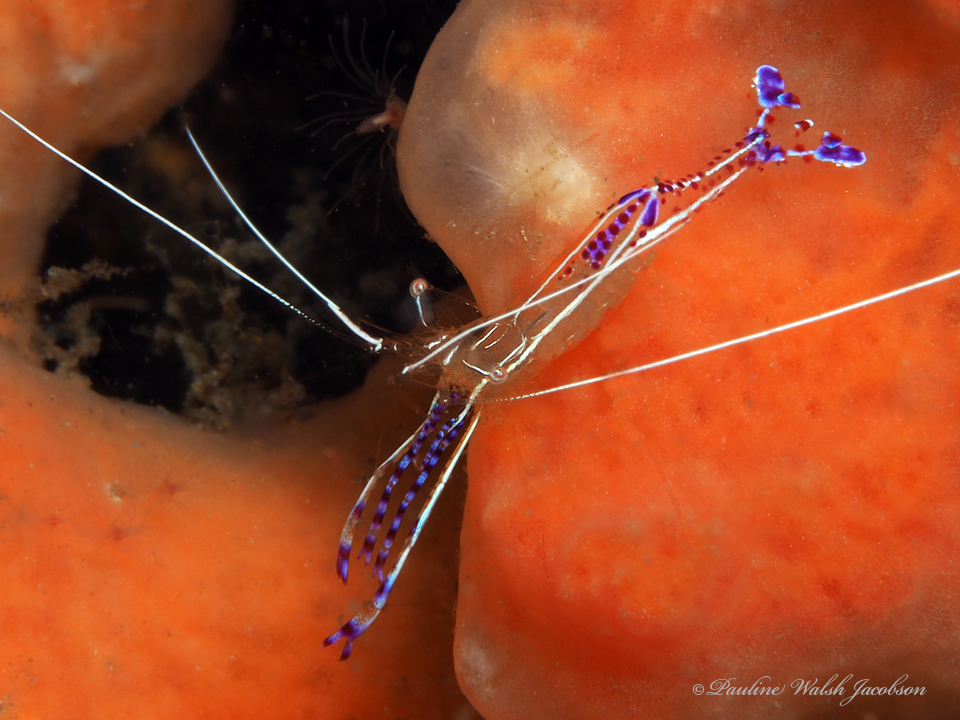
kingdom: Animalia
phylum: Arthropoda
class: Malacostraca
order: Decapoda
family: Palaemonidae
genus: Ancylomenes
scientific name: Ancylomenes pedersoni
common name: Pederson's cleaning shrimp
